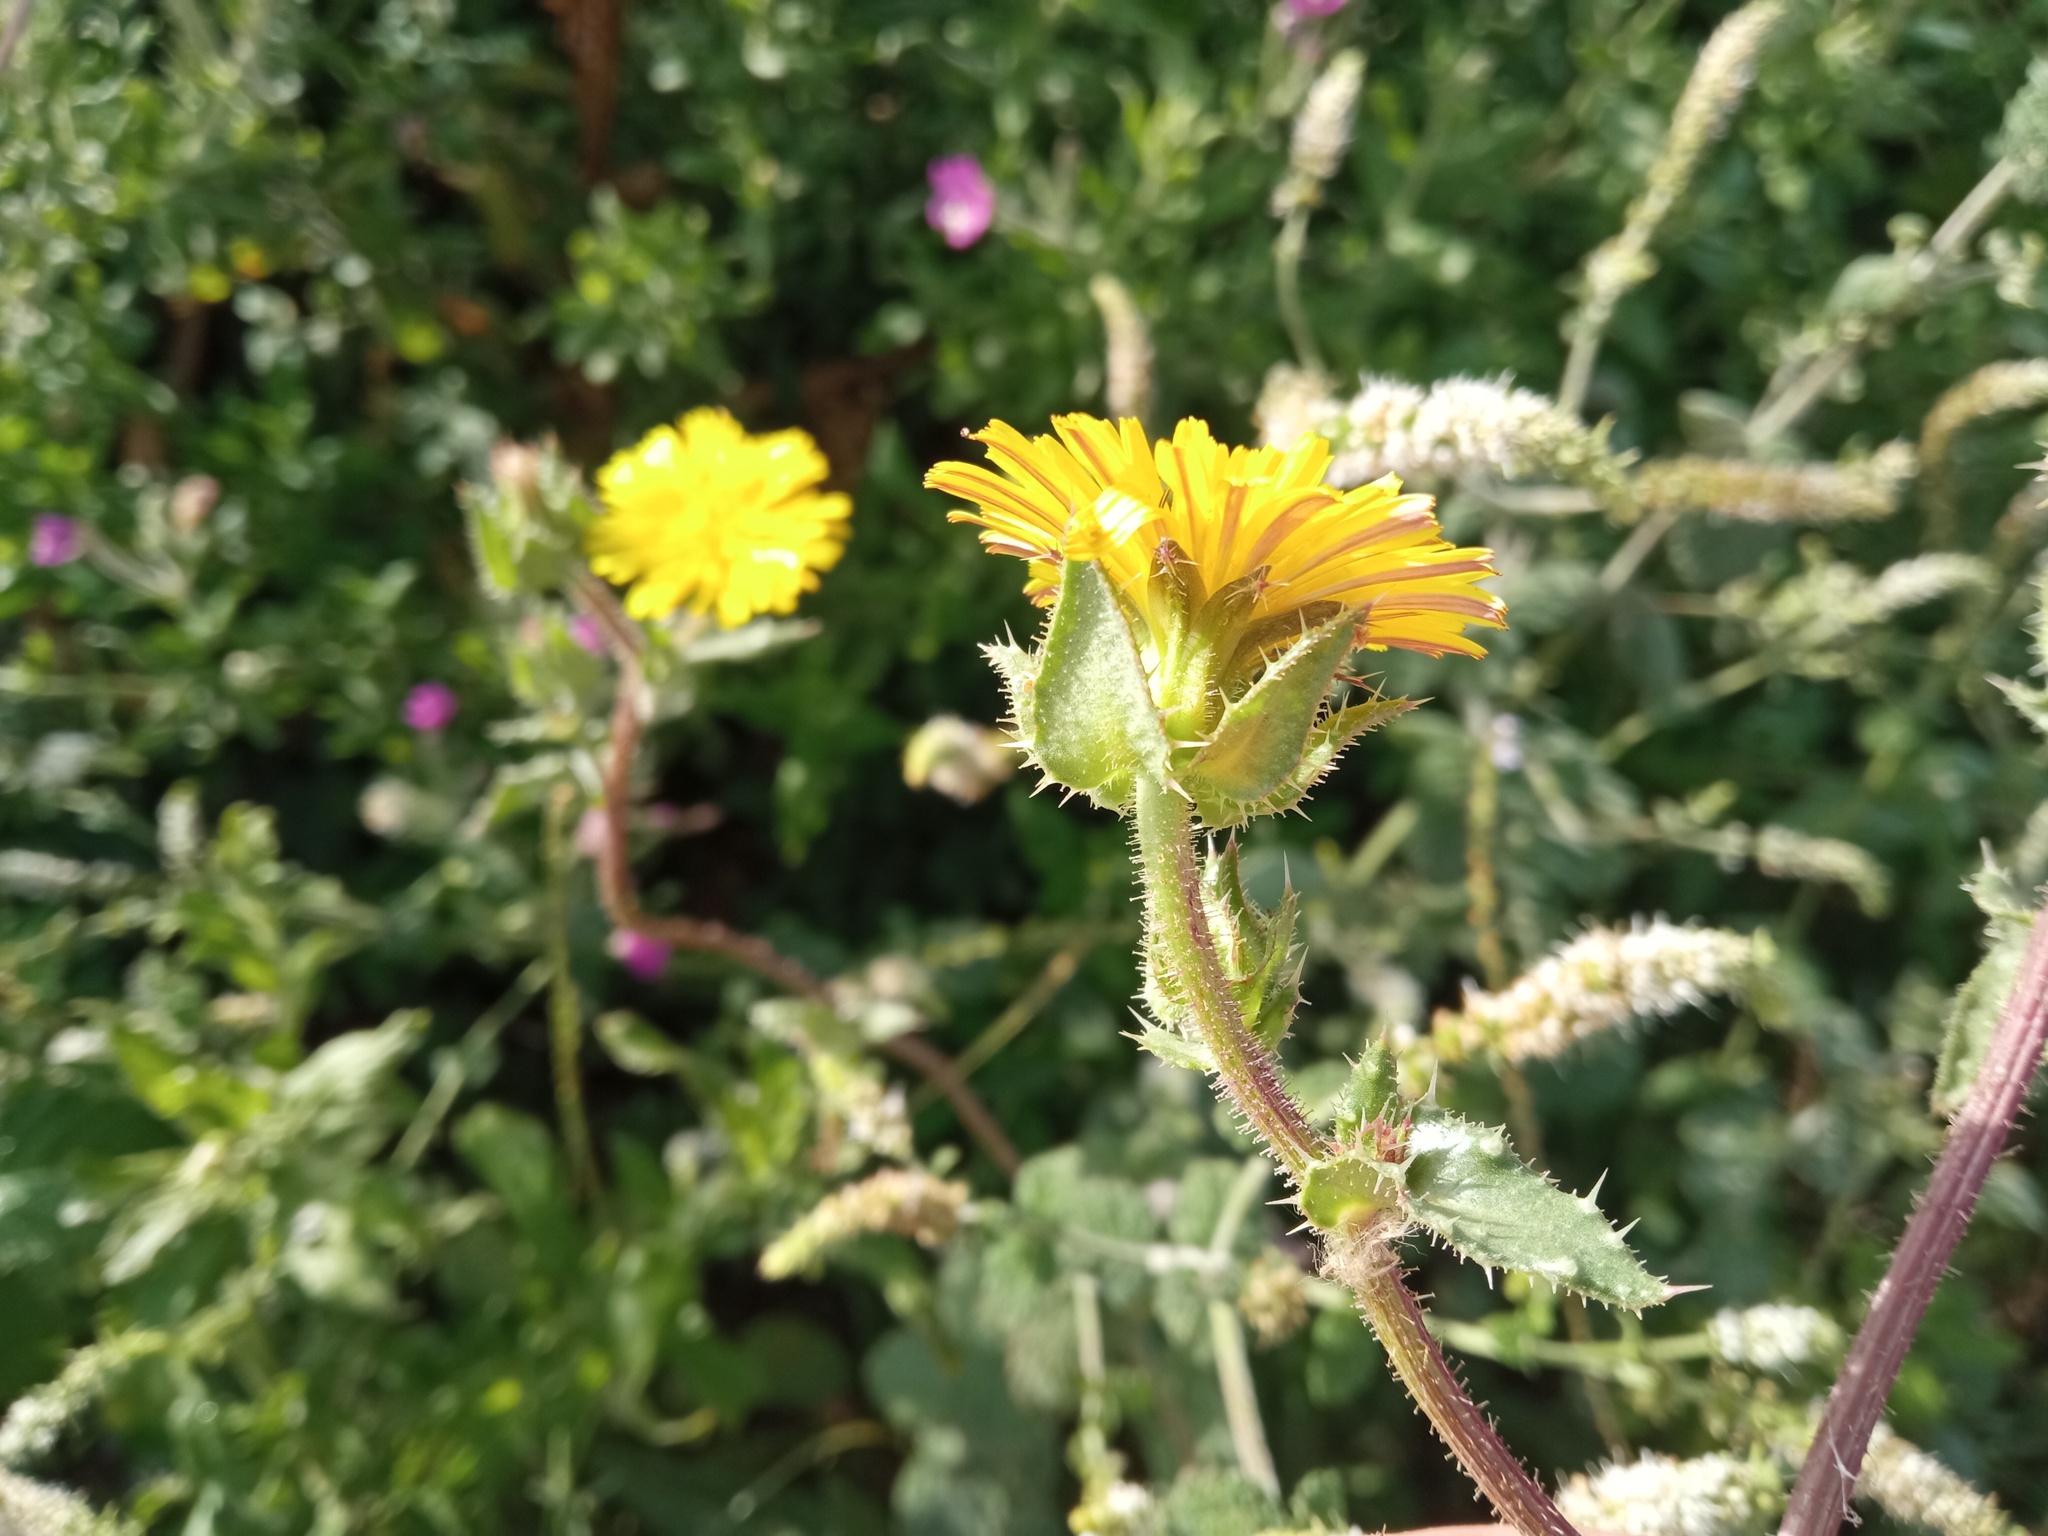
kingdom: Plantae
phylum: Tracheophyta
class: Magnoliopsida
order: Asterales
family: Asteraceae
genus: Helminthotheca
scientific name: Helminthotheca echioides
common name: Ox-tongue
